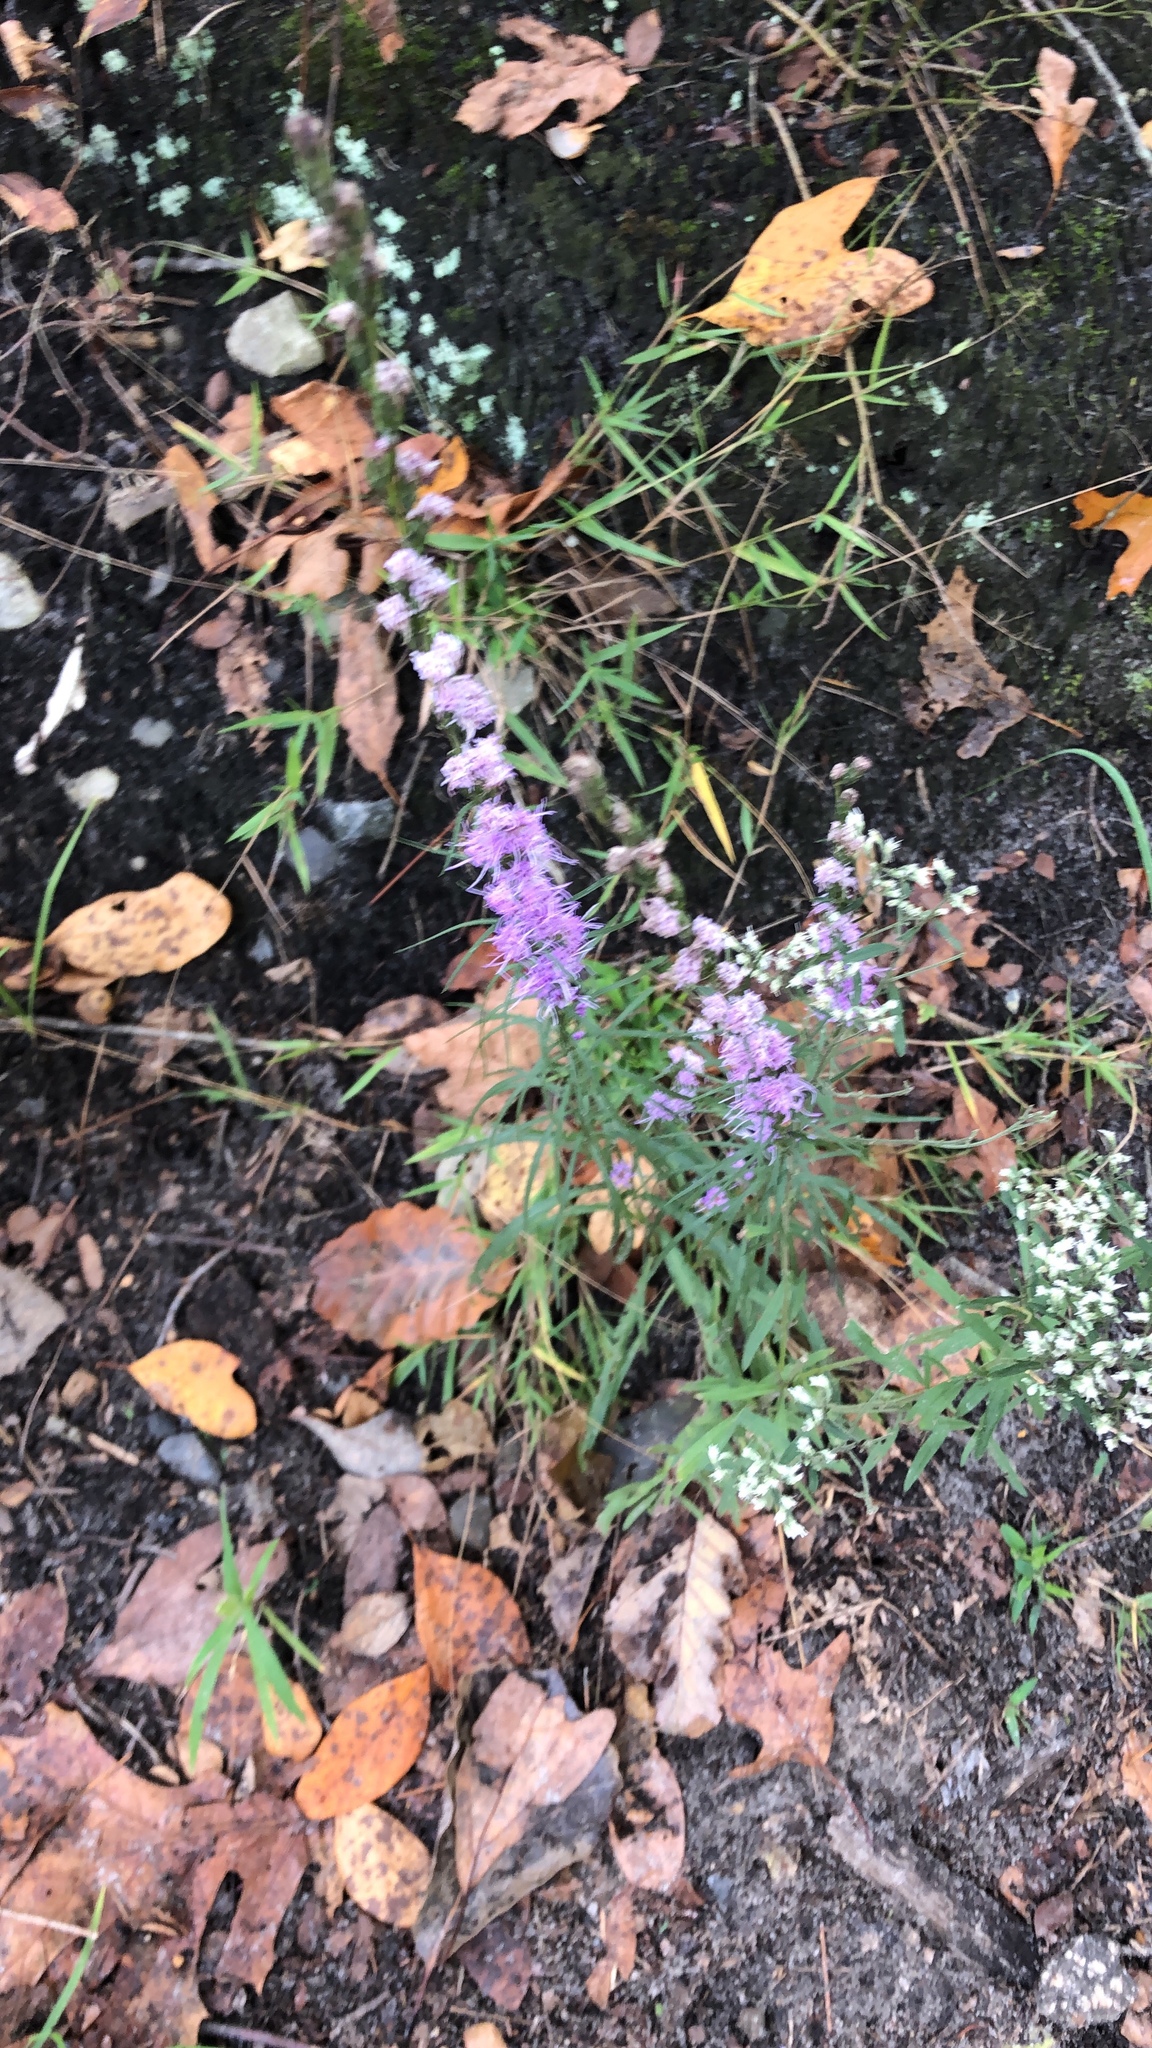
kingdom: Plantae
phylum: Tracheophyta
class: Magnoliopsida
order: Asterales
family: Asteraceae
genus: Liatris
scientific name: Liatris pilosa
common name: Grass-leaf gayfeather
